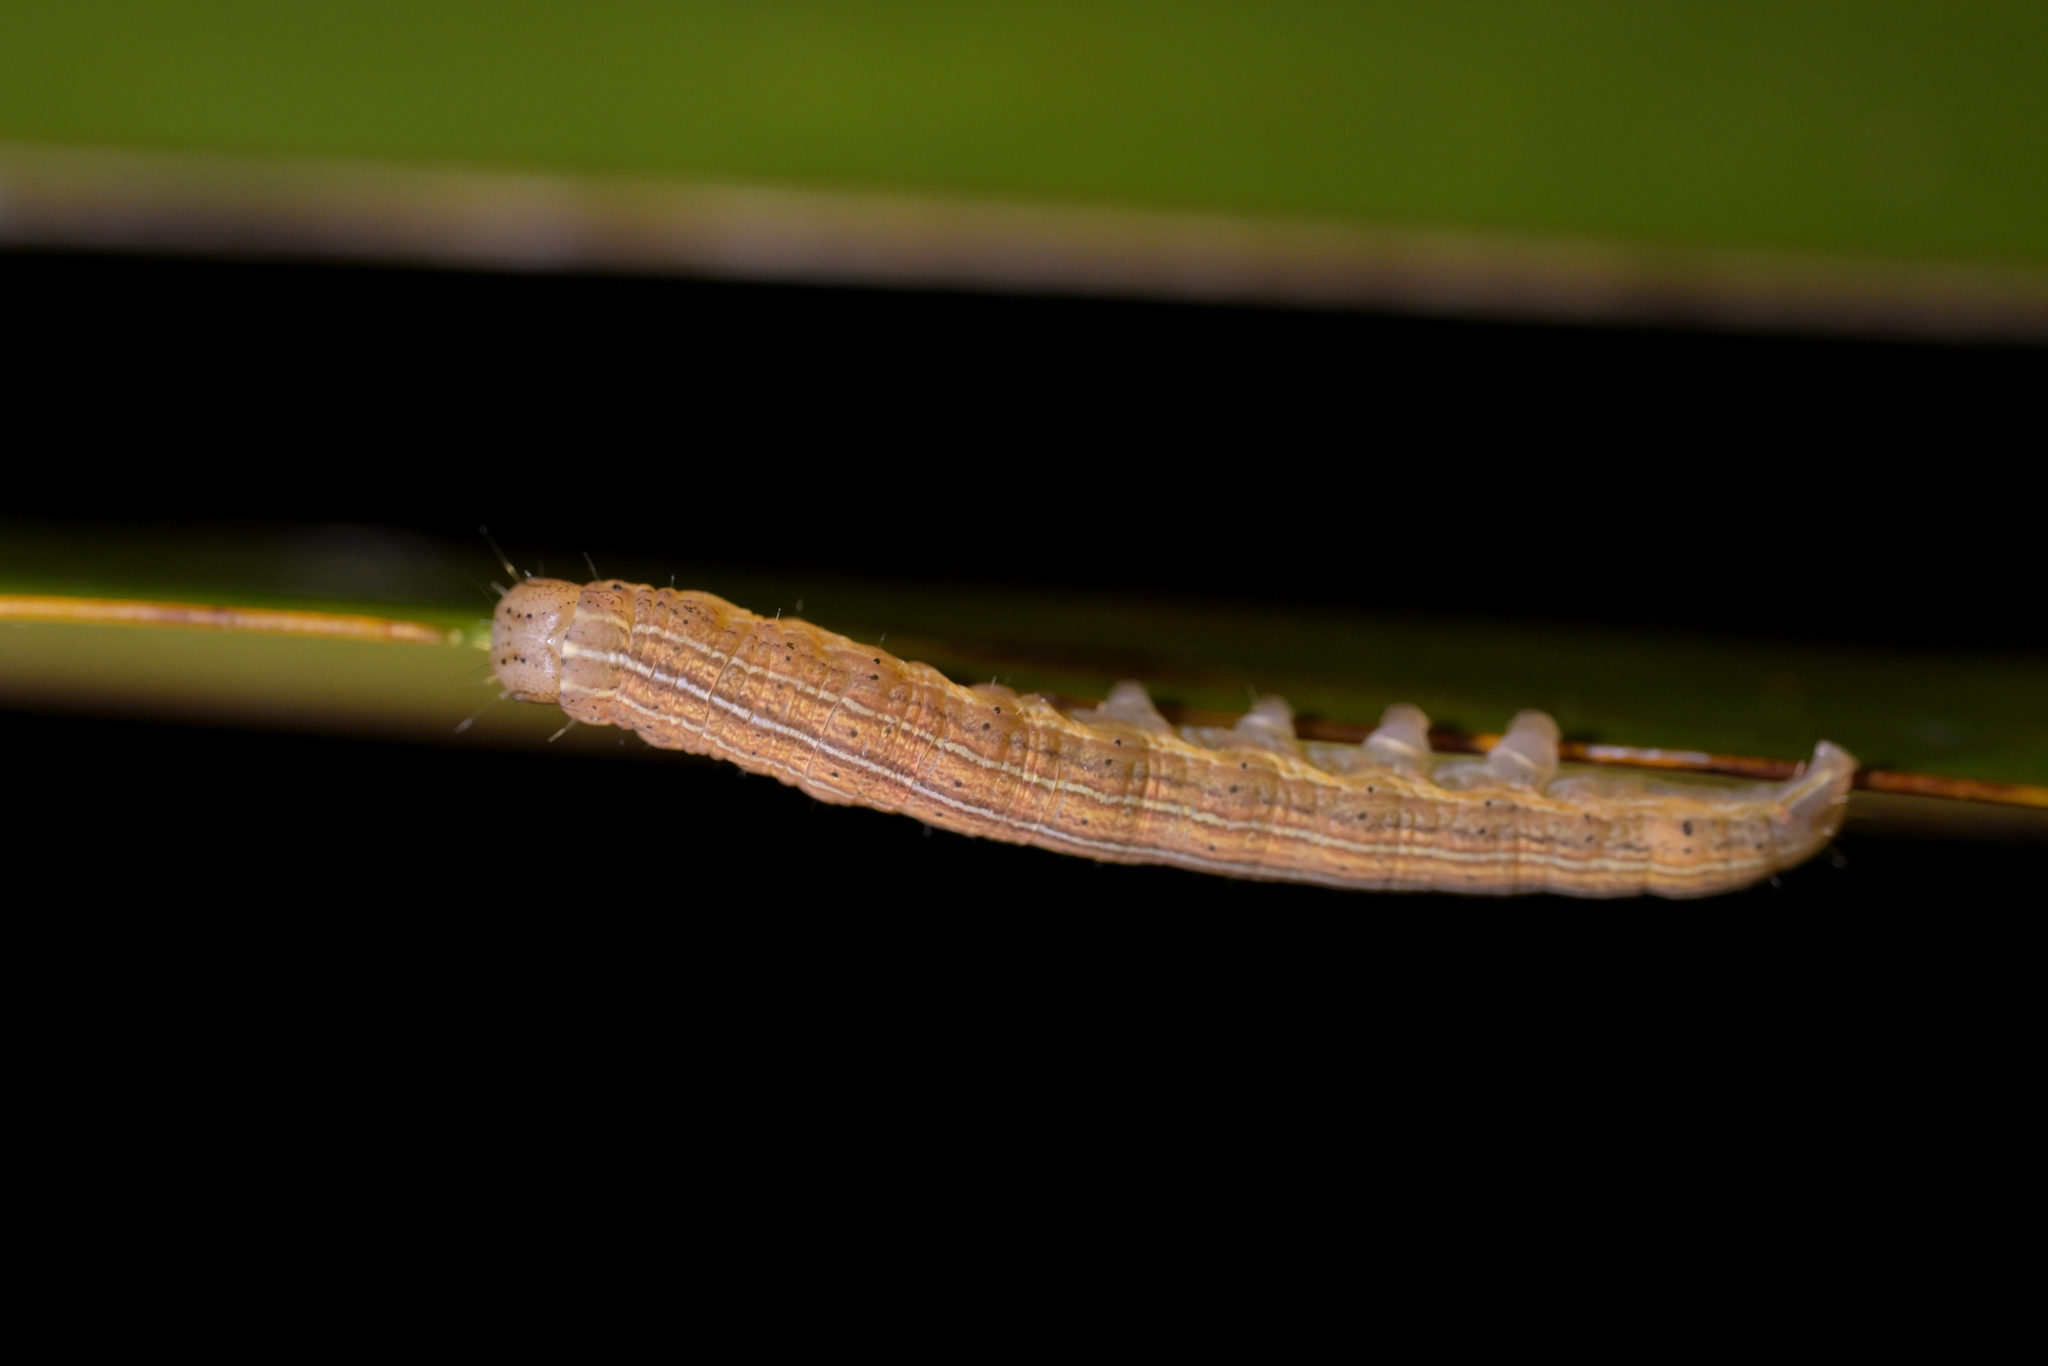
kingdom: Animalia
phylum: Arthropoda
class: Insecta
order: Lepidoptera
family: Noctuidae
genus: Ichneutica
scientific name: Ichneutica
